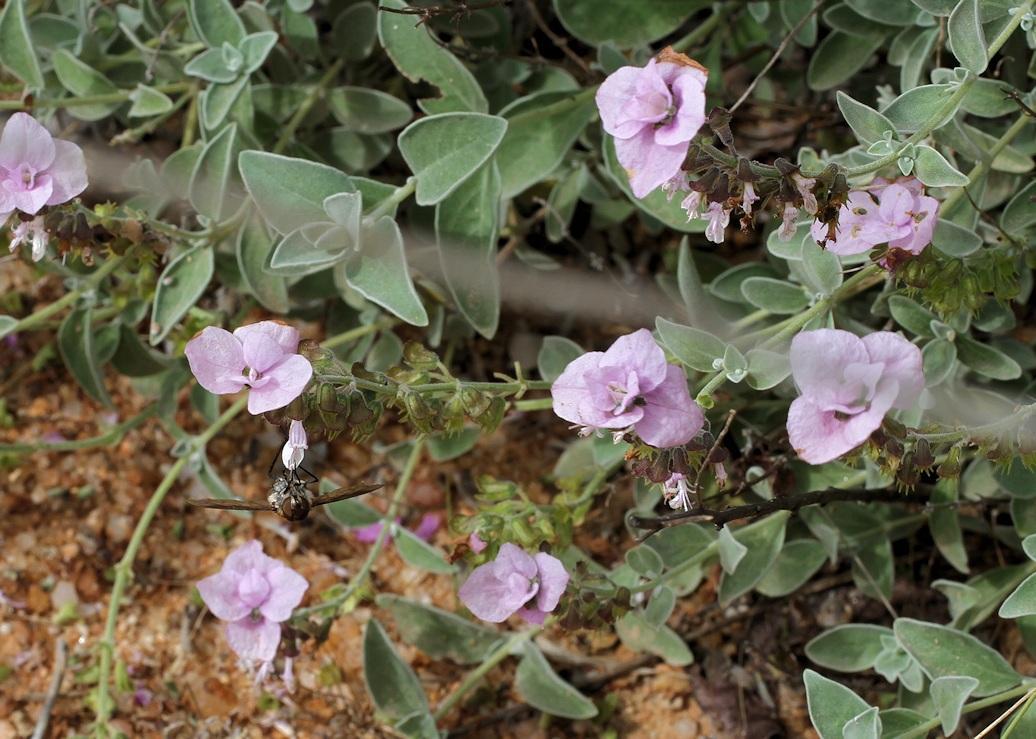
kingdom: Plantae
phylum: Tracheophyta
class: Magnoliopsida
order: Lamiales
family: Lamiaceae
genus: Syncolostemon
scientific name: Syncolostemon elliottii
